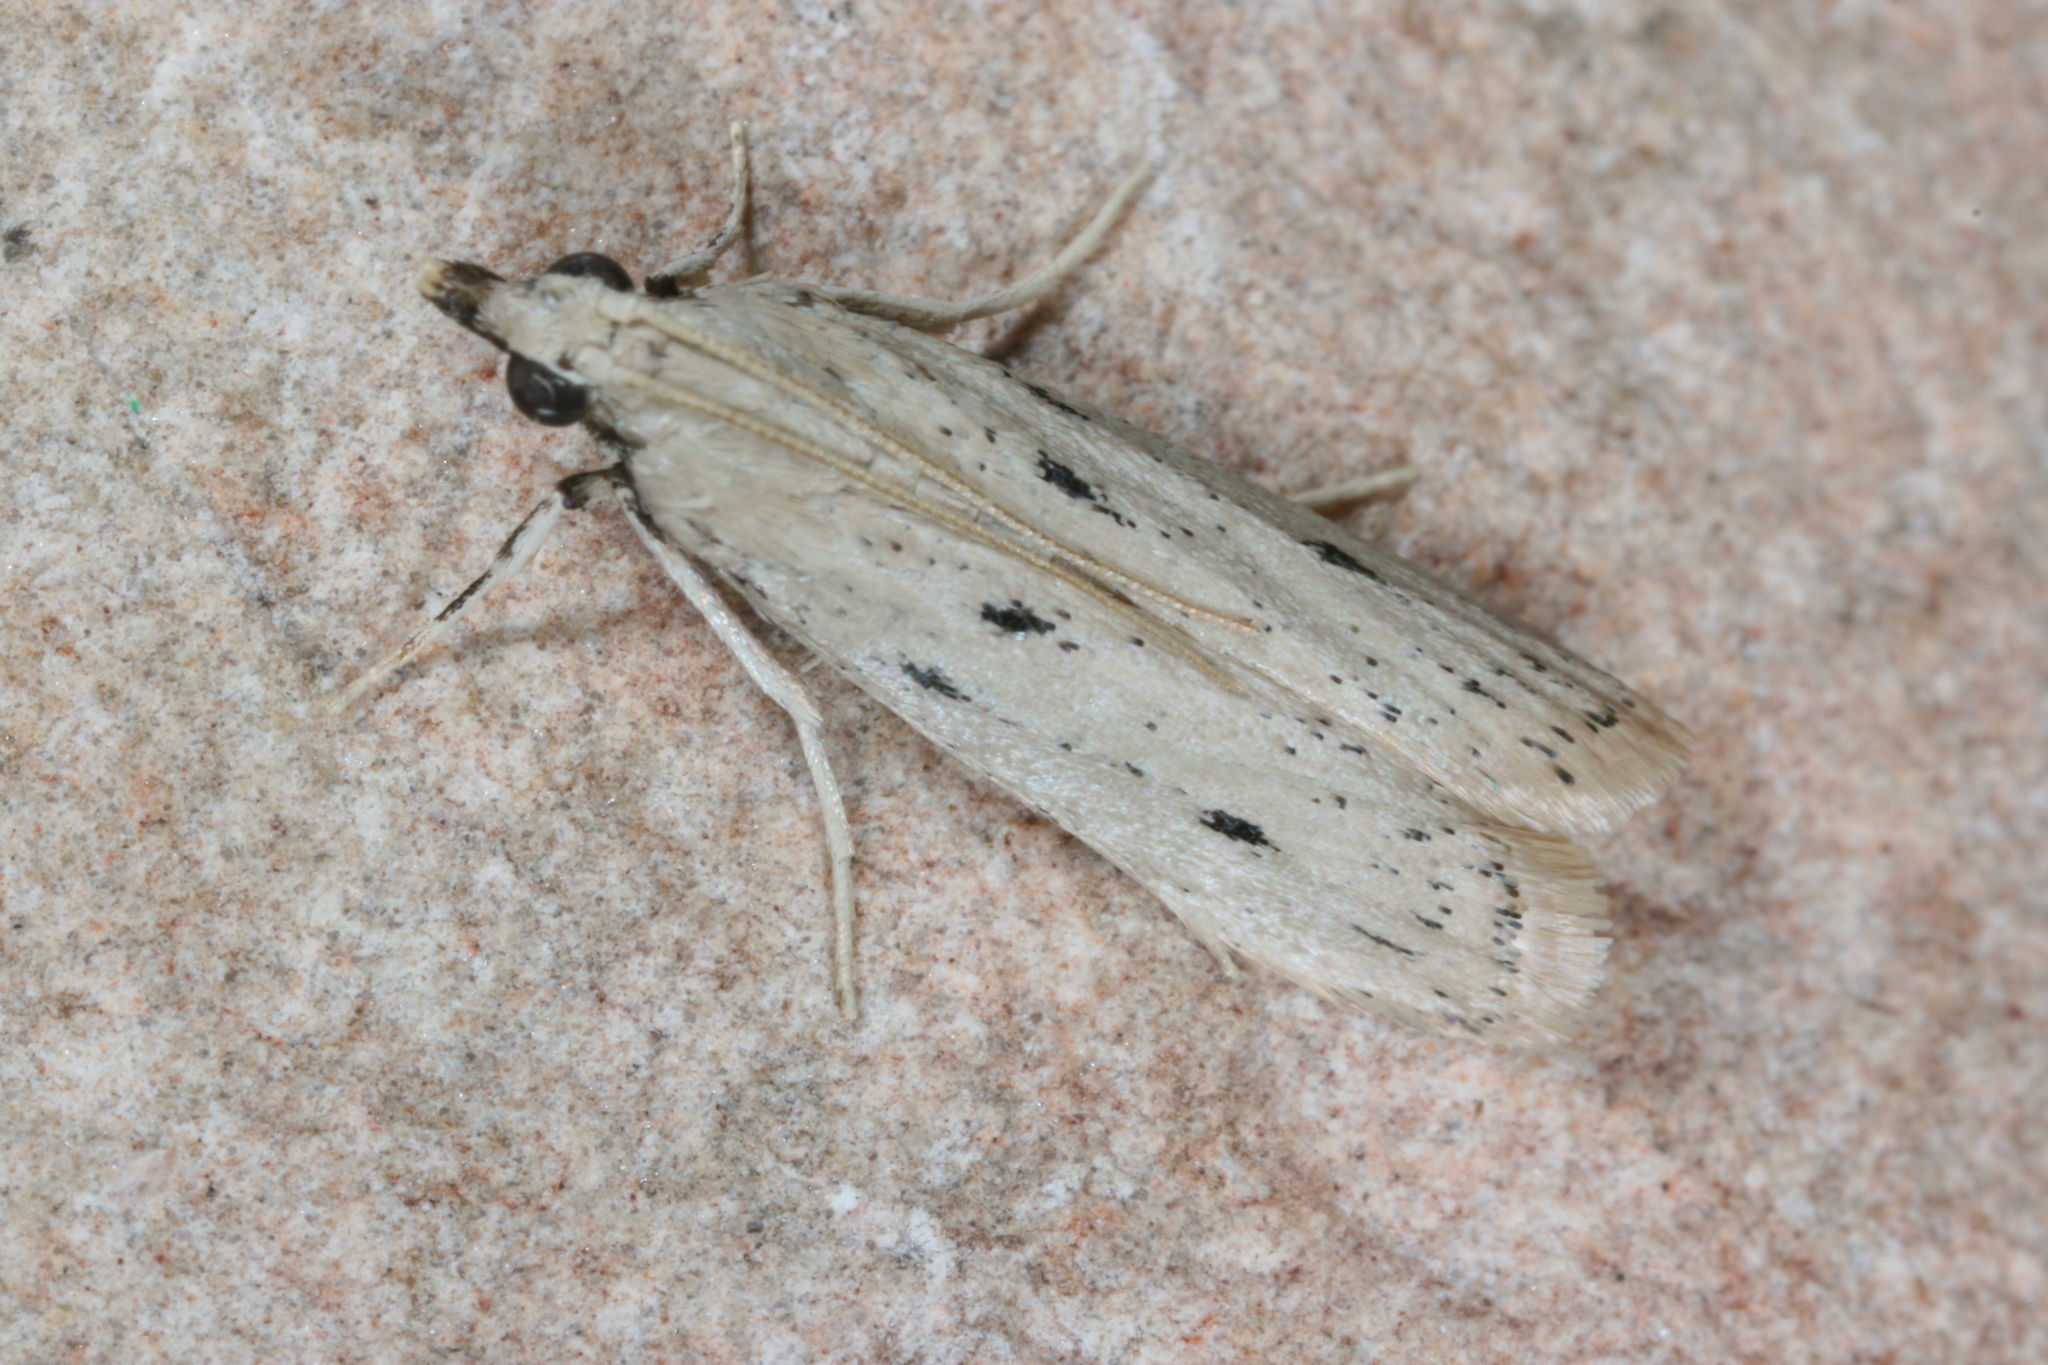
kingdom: Animalia
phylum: Arthropoda
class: Insecta
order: Lepidoptera
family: Pyralidae
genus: Sosipatra
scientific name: Sosipatra rileyella
